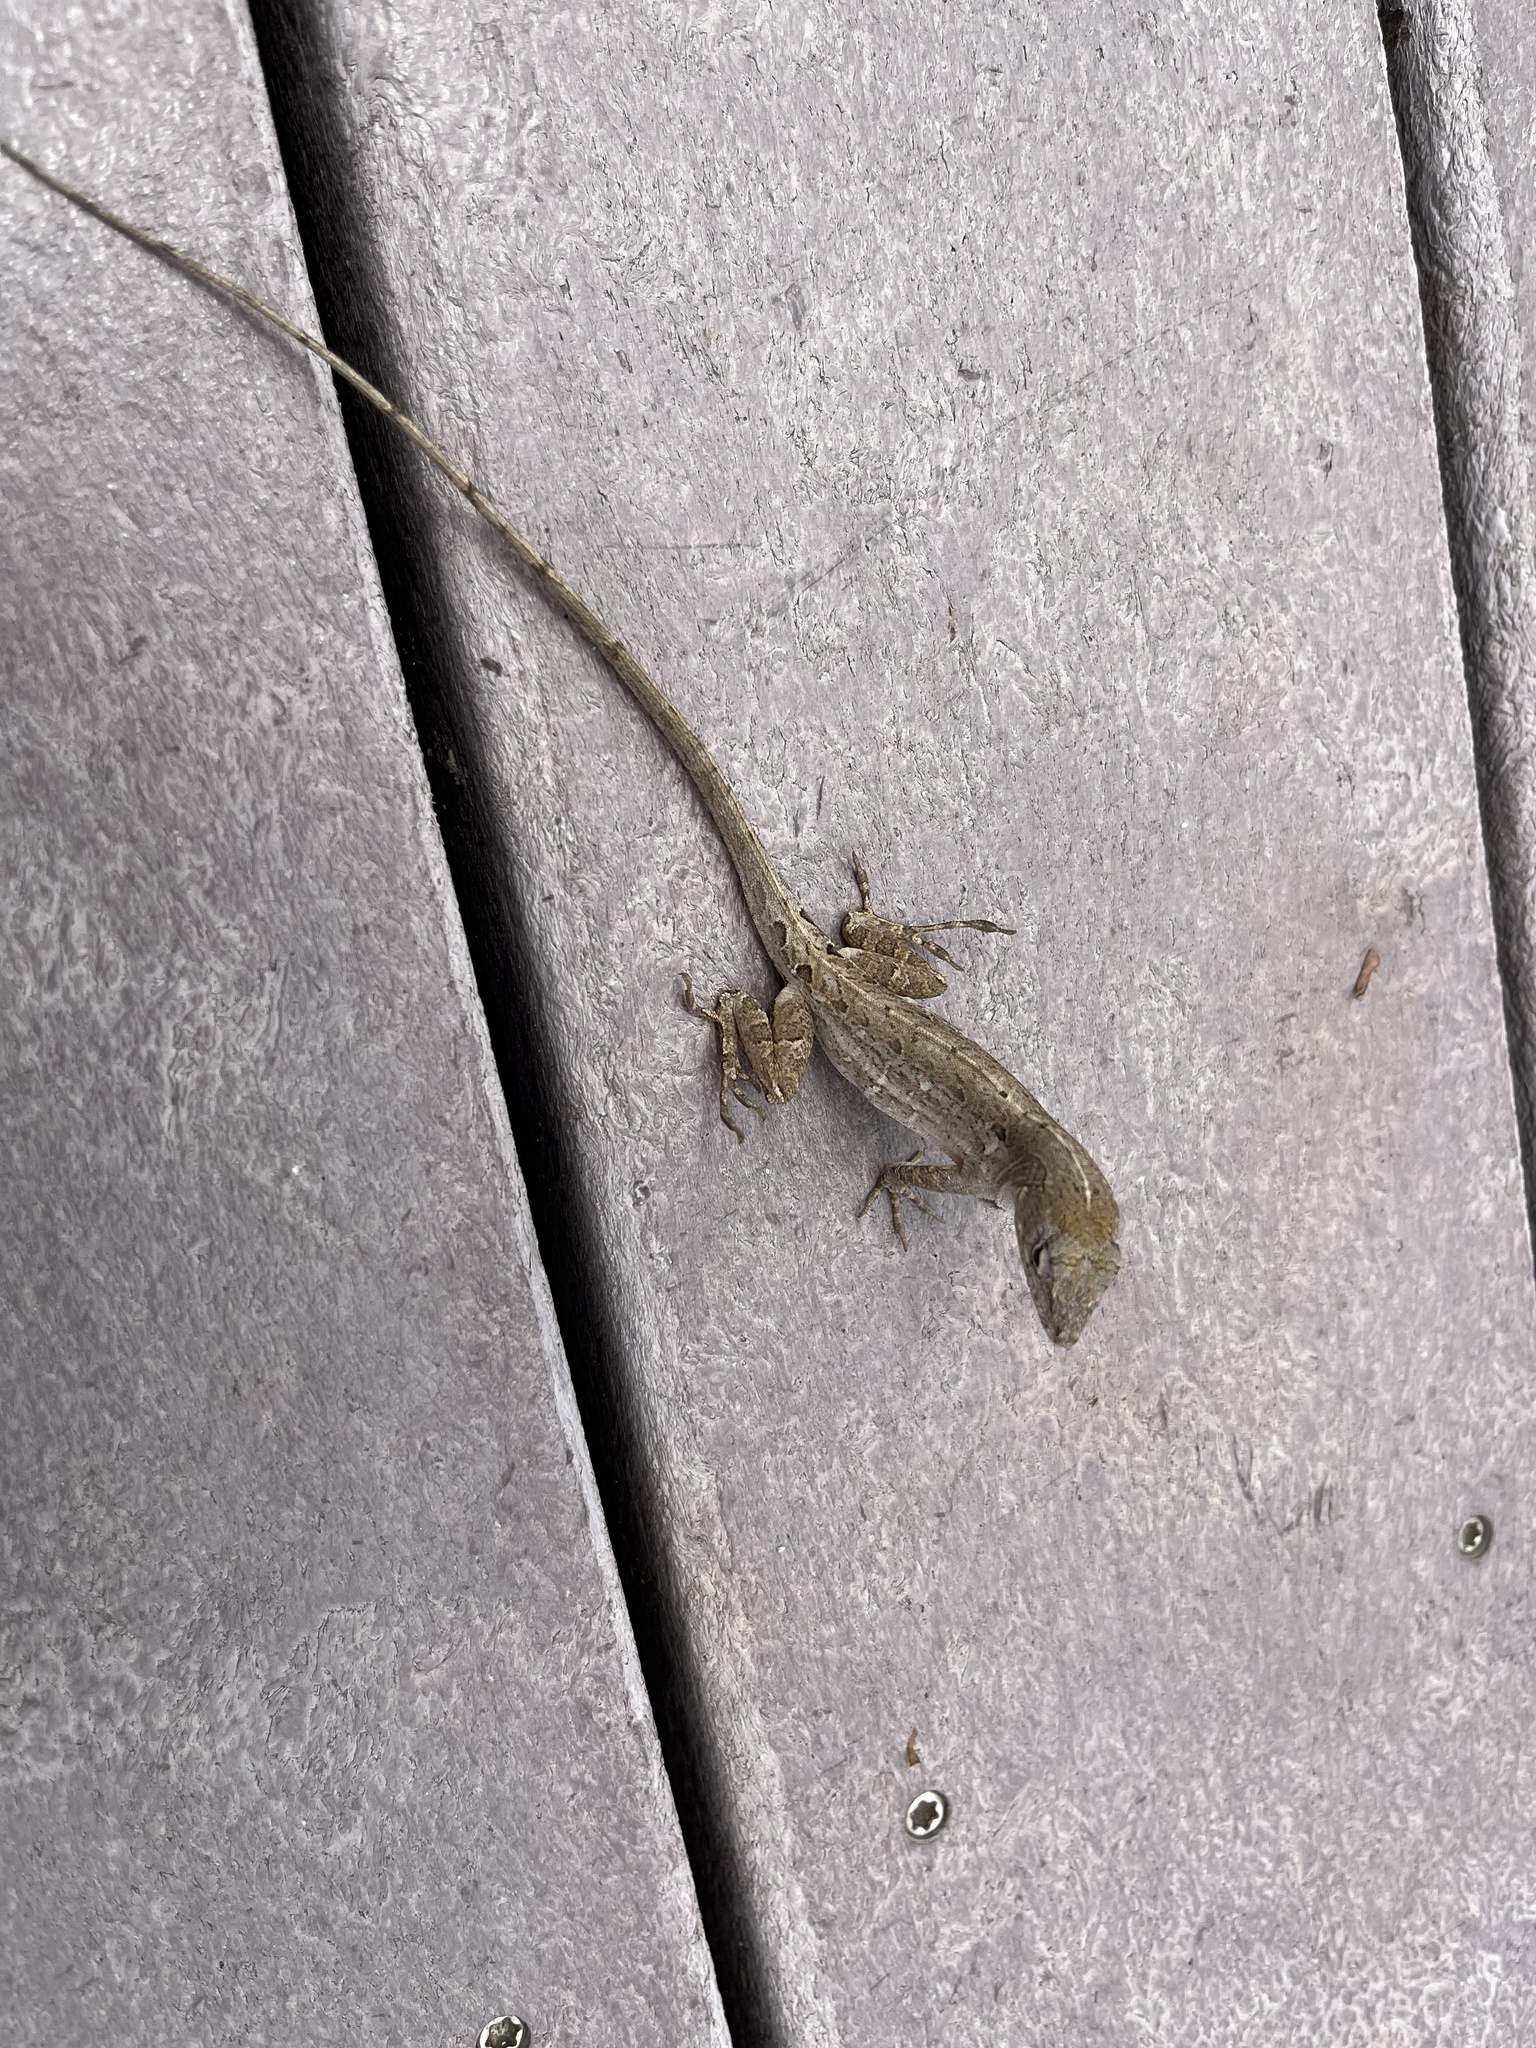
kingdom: Animalia
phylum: Chordata
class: Squamata
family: Dactyloidae
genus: Anolis
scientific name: Anolis sagrei
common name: Brown anole
